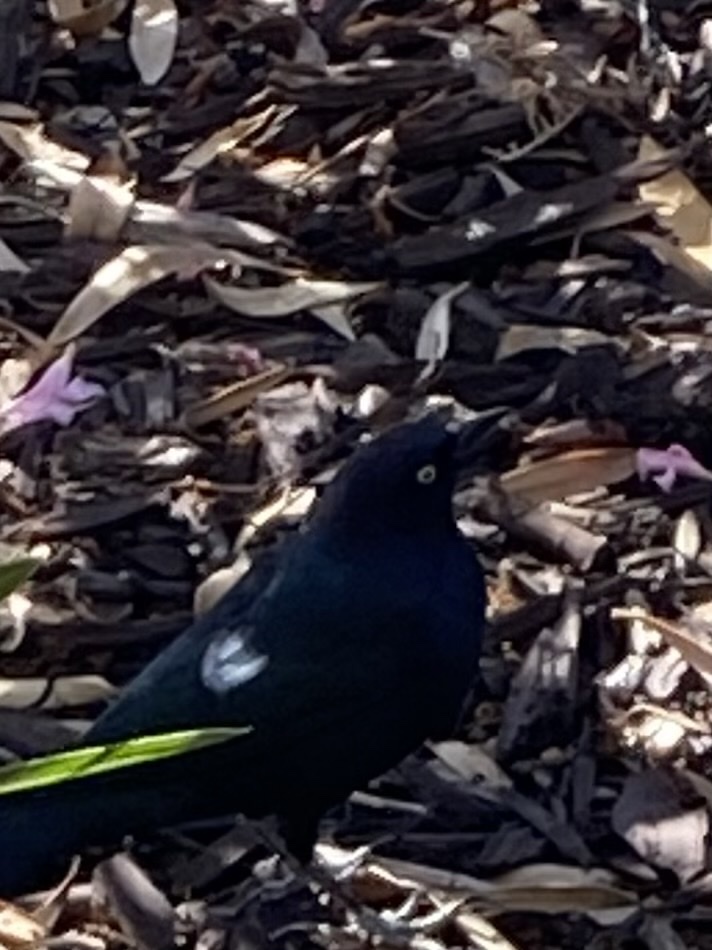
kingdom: Animalia
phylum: Chordata
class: Aves
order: Passeriformes
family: Icteridae
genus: Euphagus
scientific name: Euphagus cyanocephalus
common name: Brewer's blackbird
